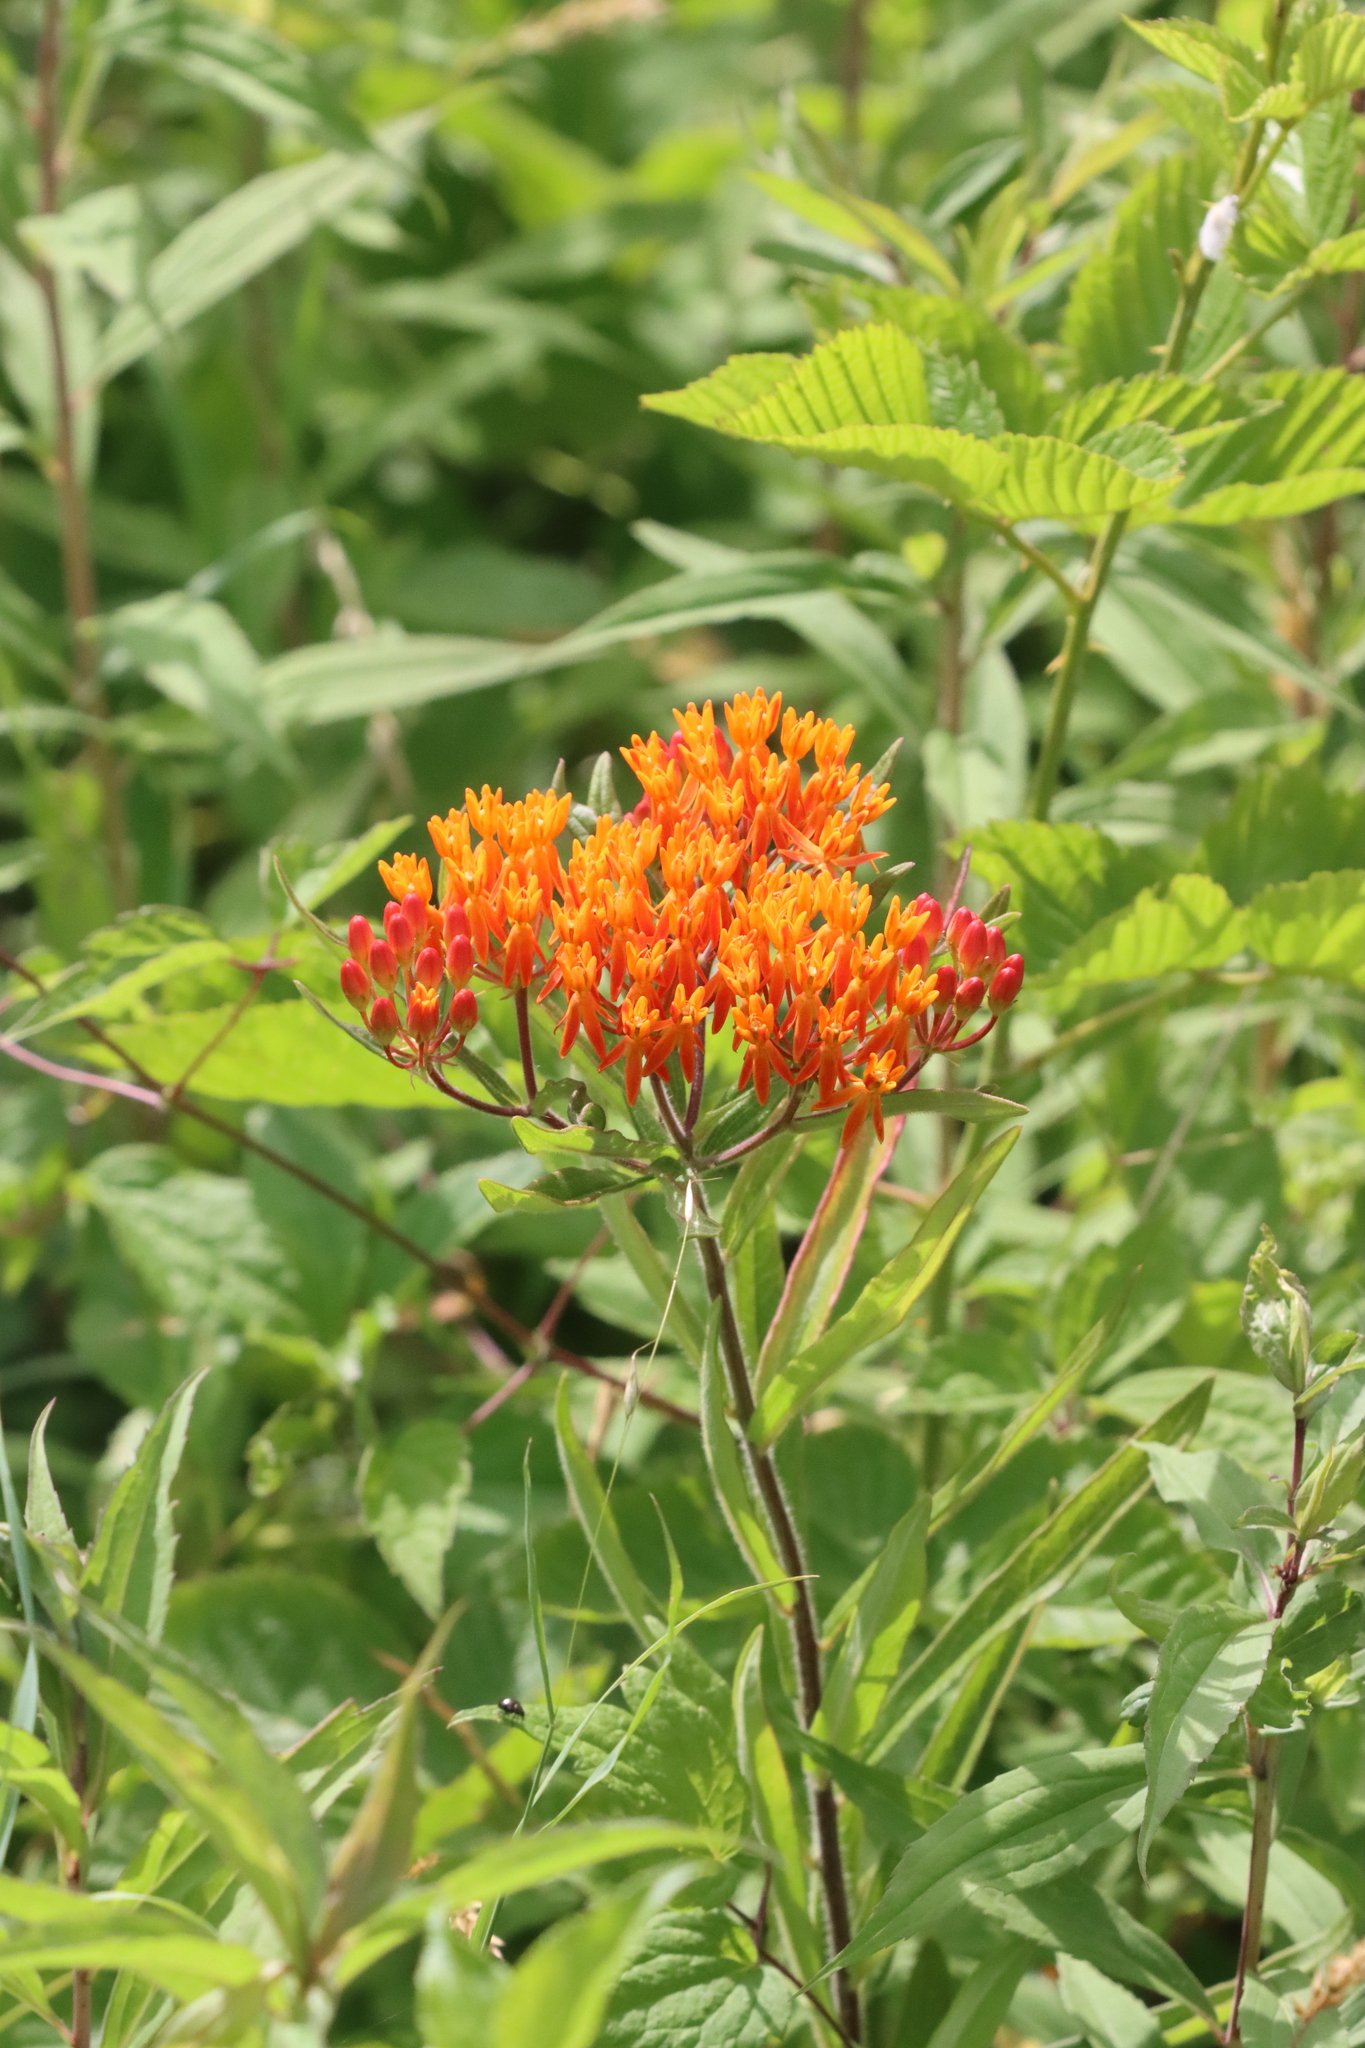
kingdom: Plantae
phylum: Tracheophyta
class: Magnoliopsida
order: Gentianales
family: Apocynaceae
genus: Asclepias
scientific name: Asclepias tuberosa
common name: Butterfly milkweed
